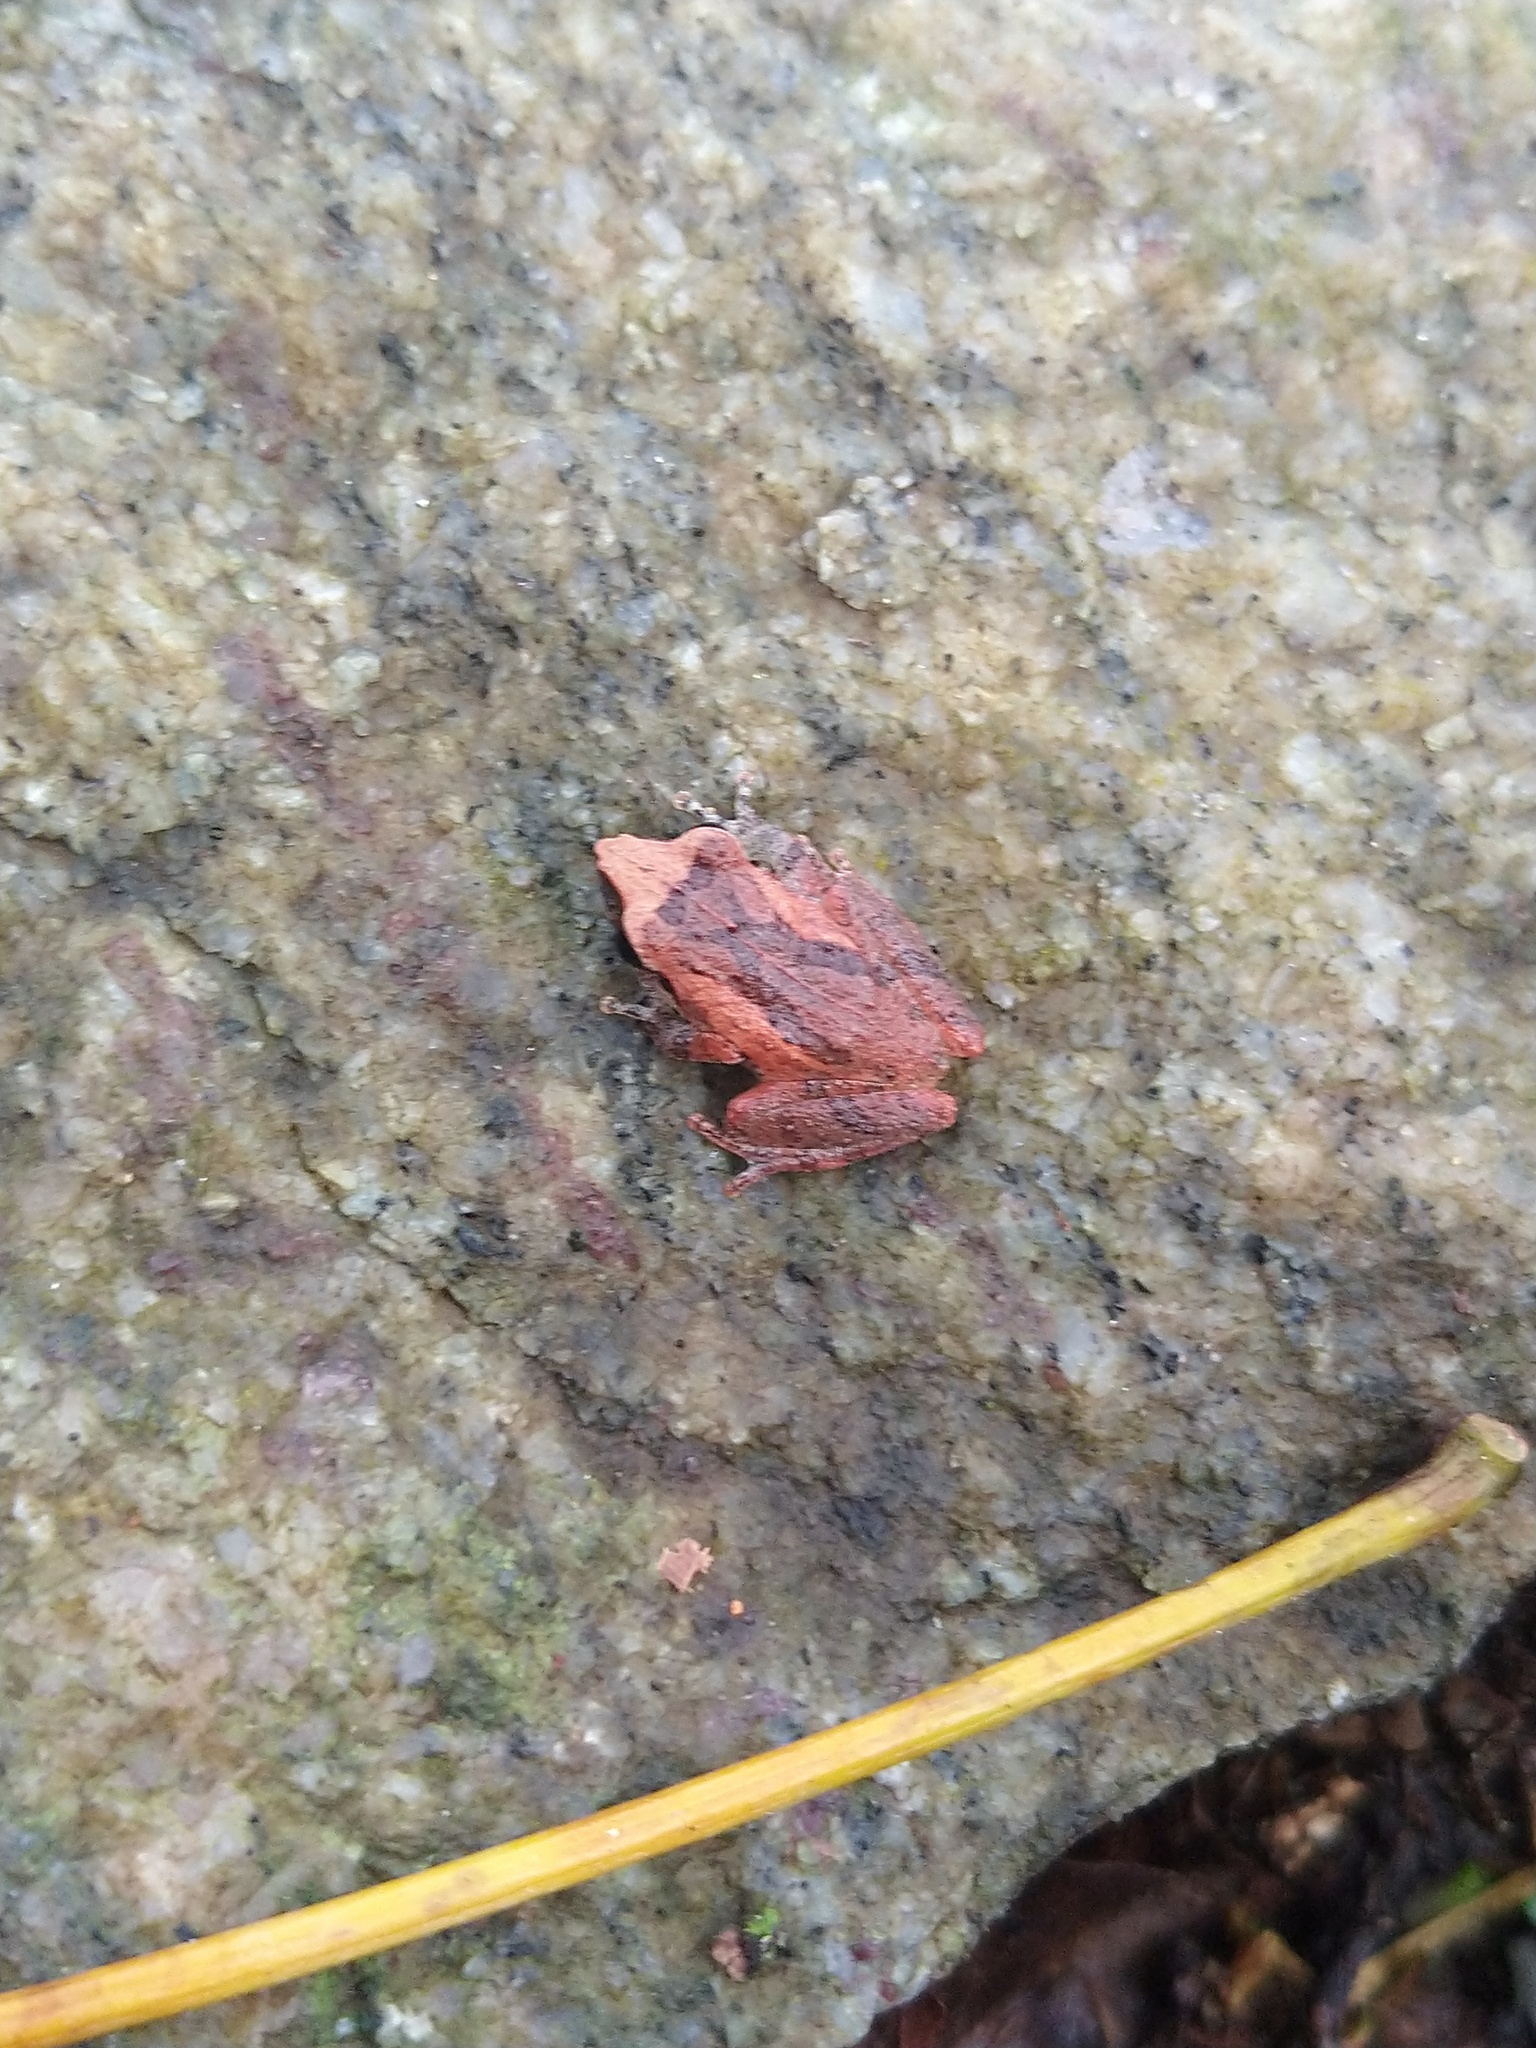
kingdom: Animalia
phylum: Chordata
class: Amphibia
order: Anura
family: Rhacophoridae
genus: Pseudophilautus
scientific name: Pseudophilautus kani
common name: Kani bush frog
